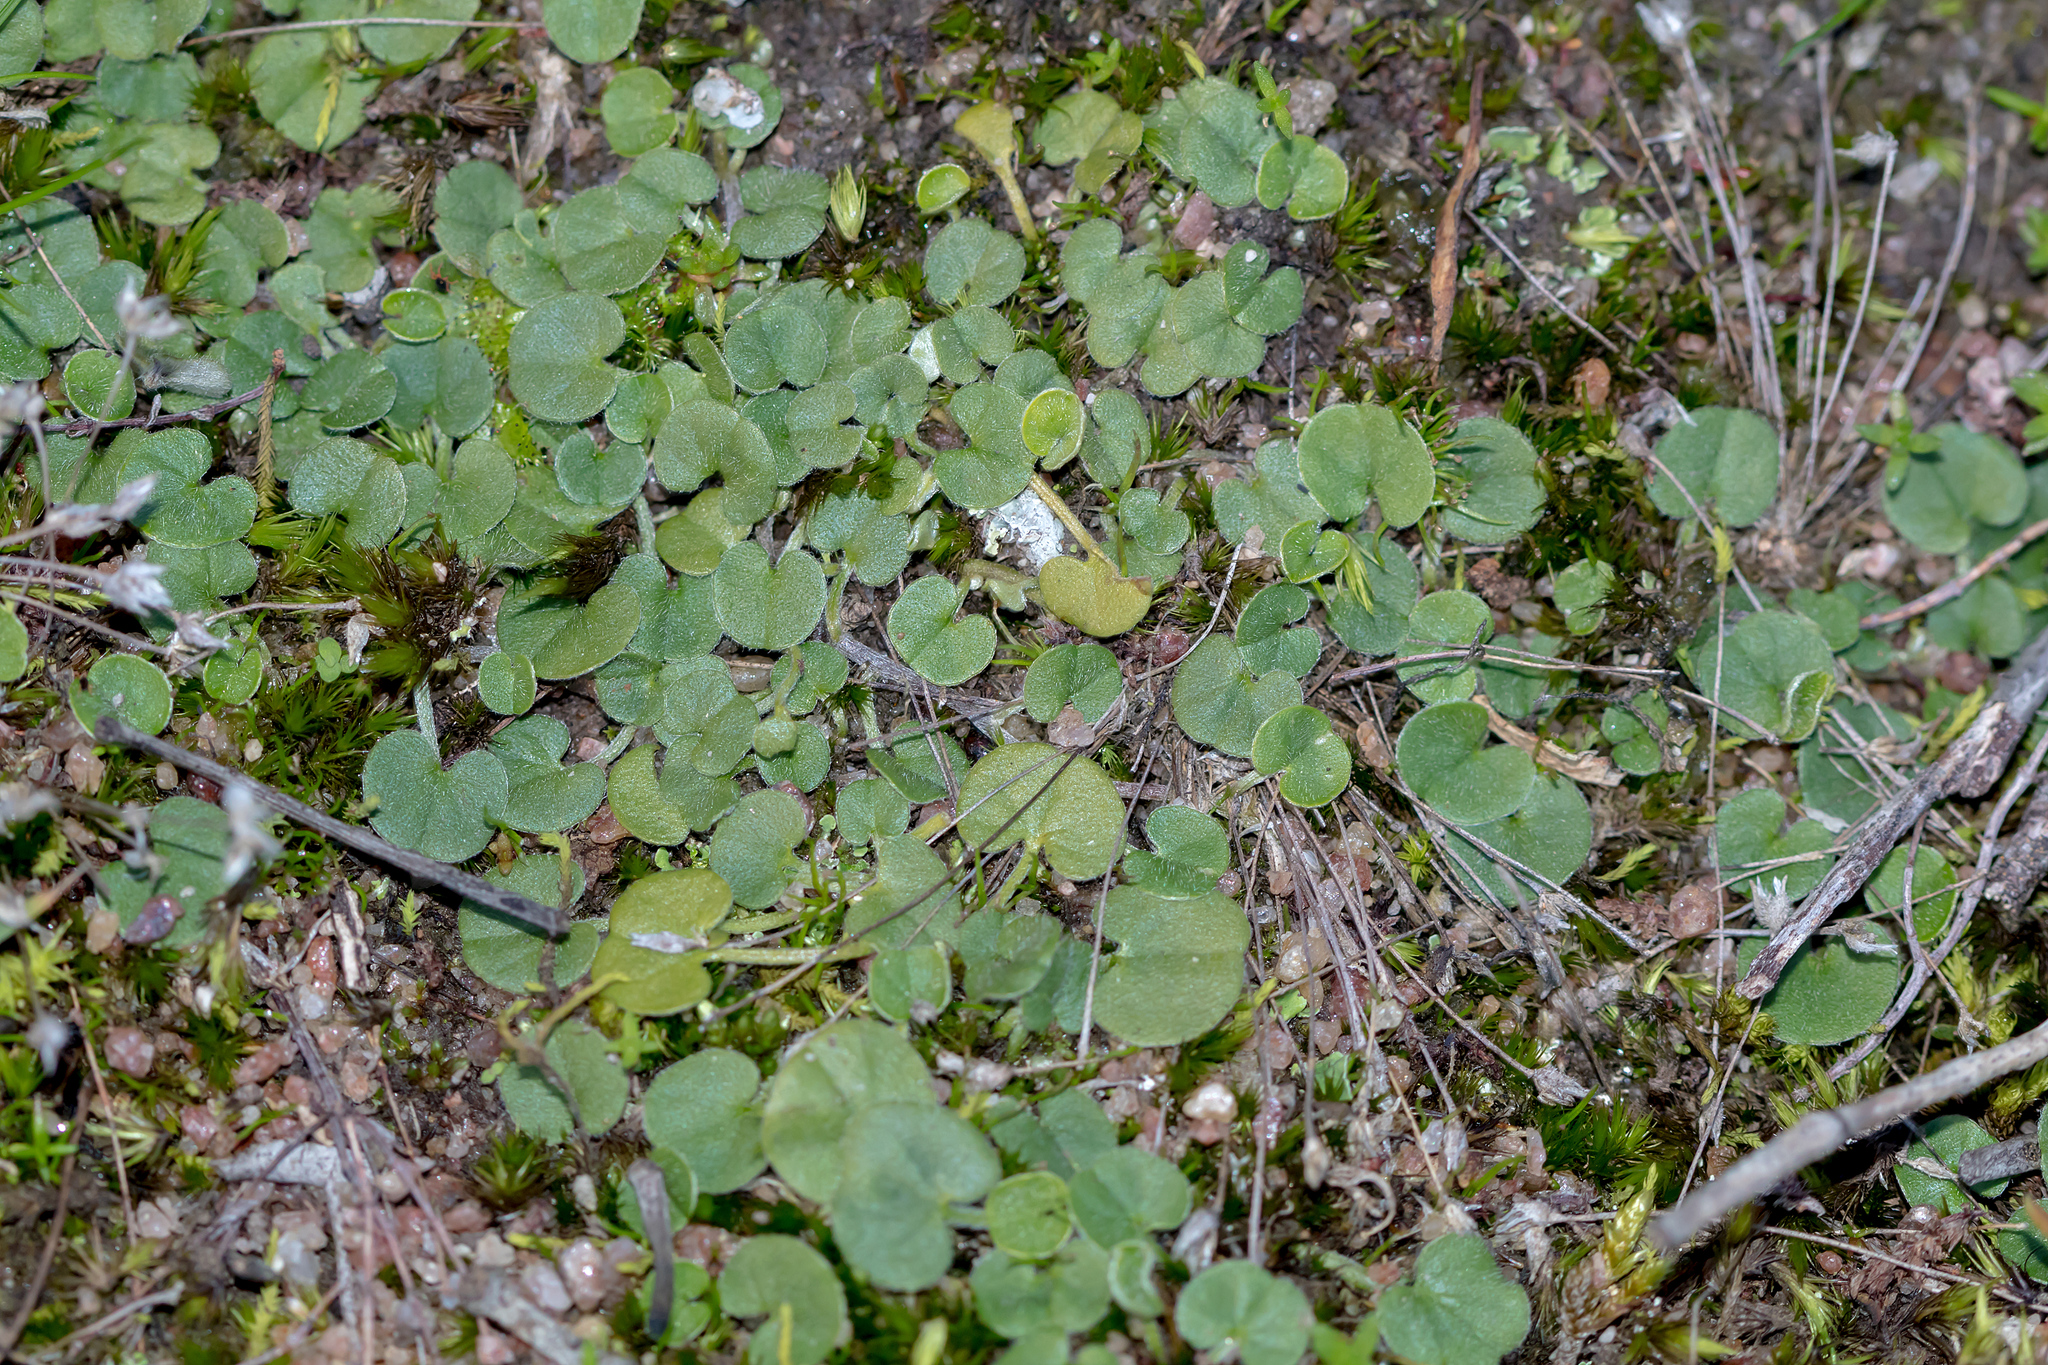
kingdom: Plantae
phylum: Tracheophyta
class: Magnoliopsida
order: Solanales
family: Convolvulaceae
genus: Dichondra
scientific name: Dichondra repens
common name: Kidneyweed
